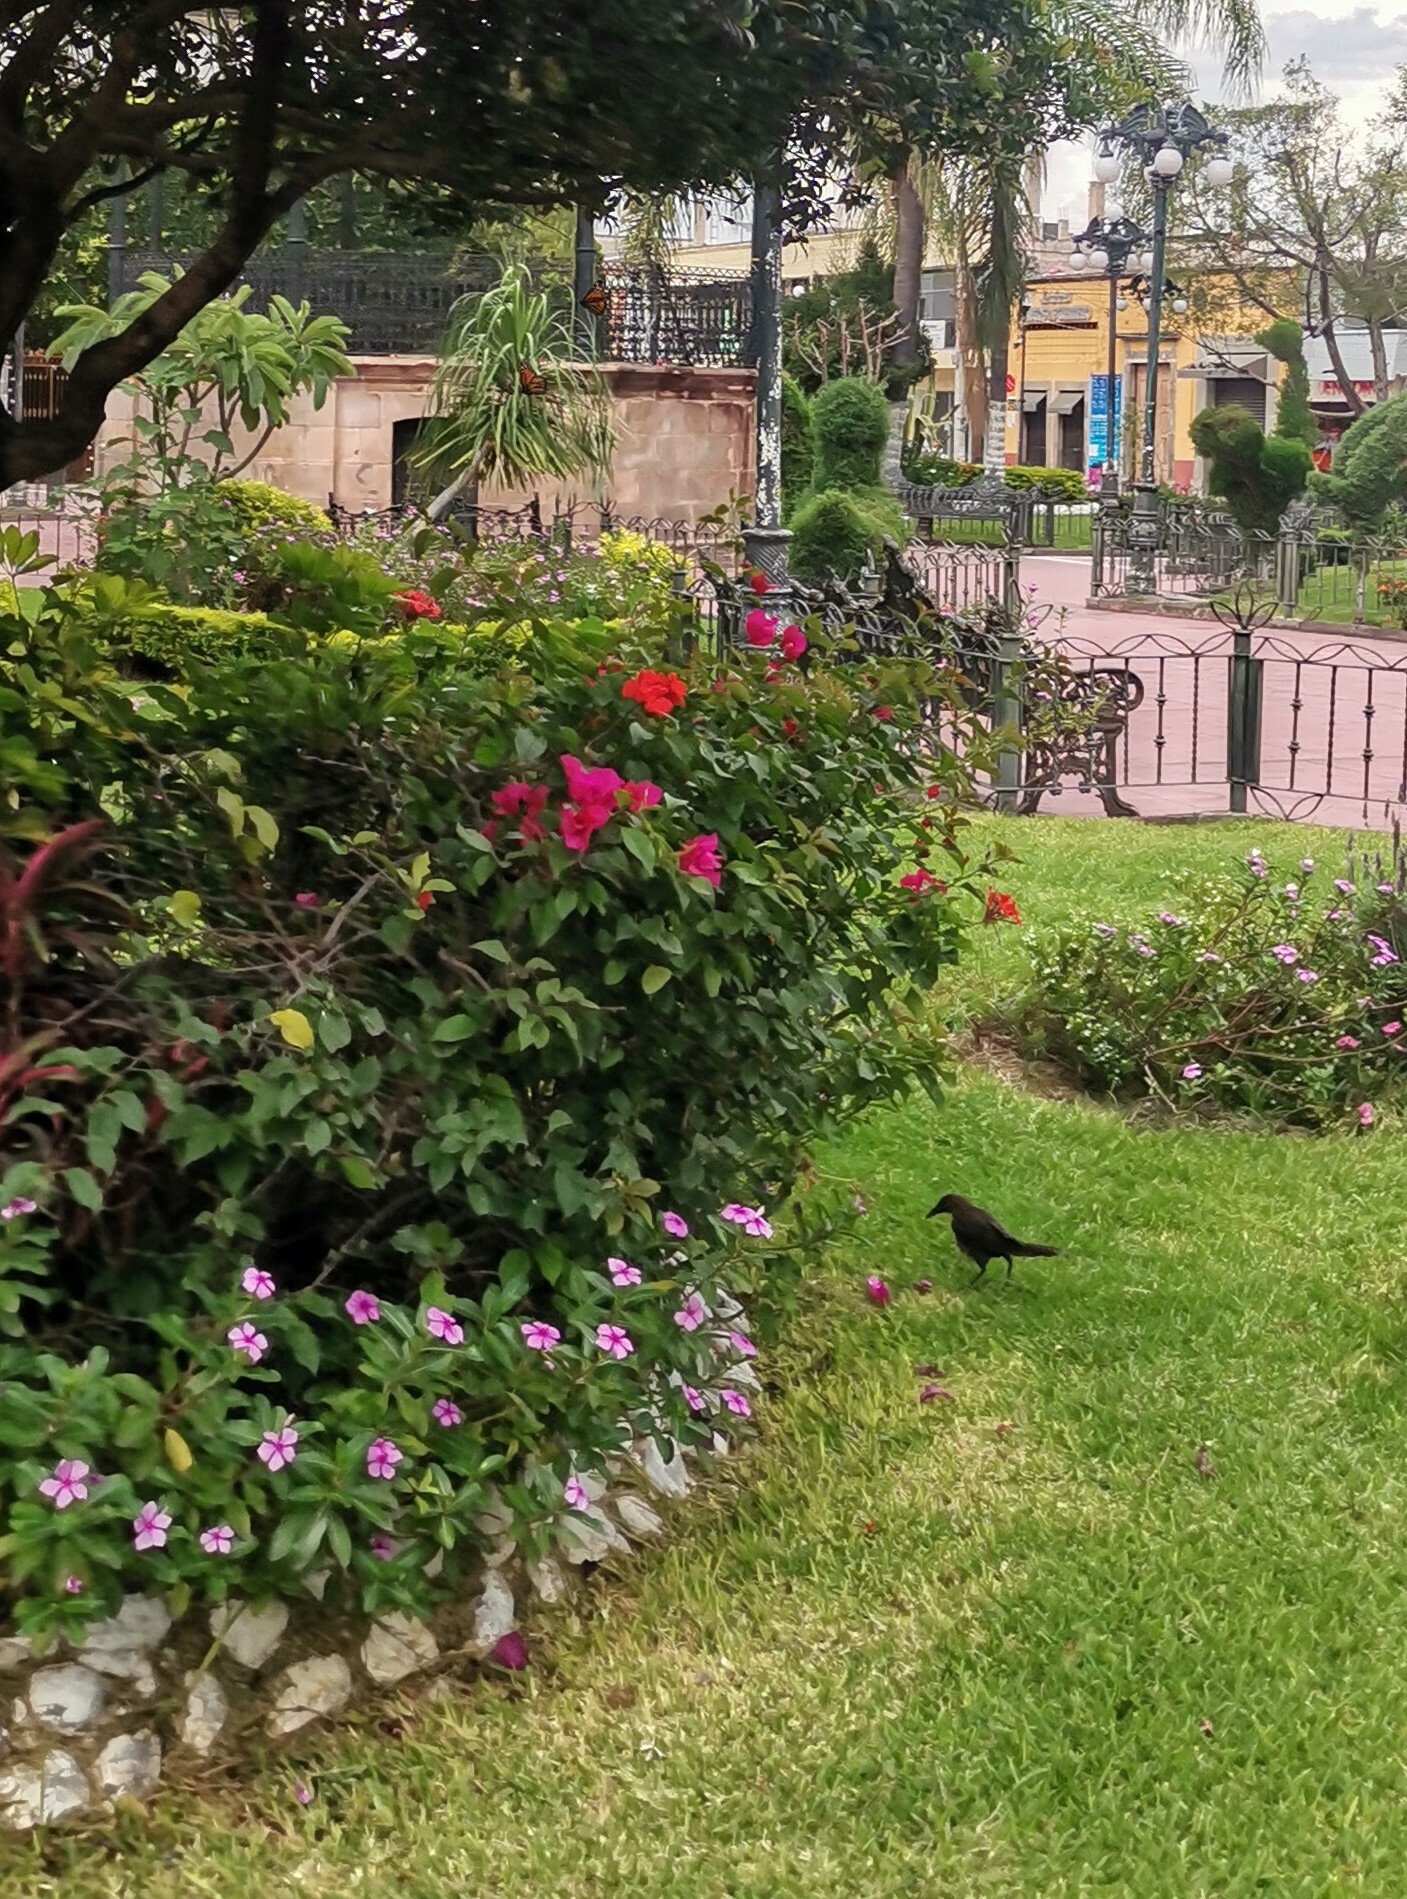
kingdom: Animalia
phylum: Chordata
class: Aves
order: Passeriformes
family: Icteridae
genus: Quiscalus
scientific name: Quiscalus mexicanus
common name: Great-tailed grackle
